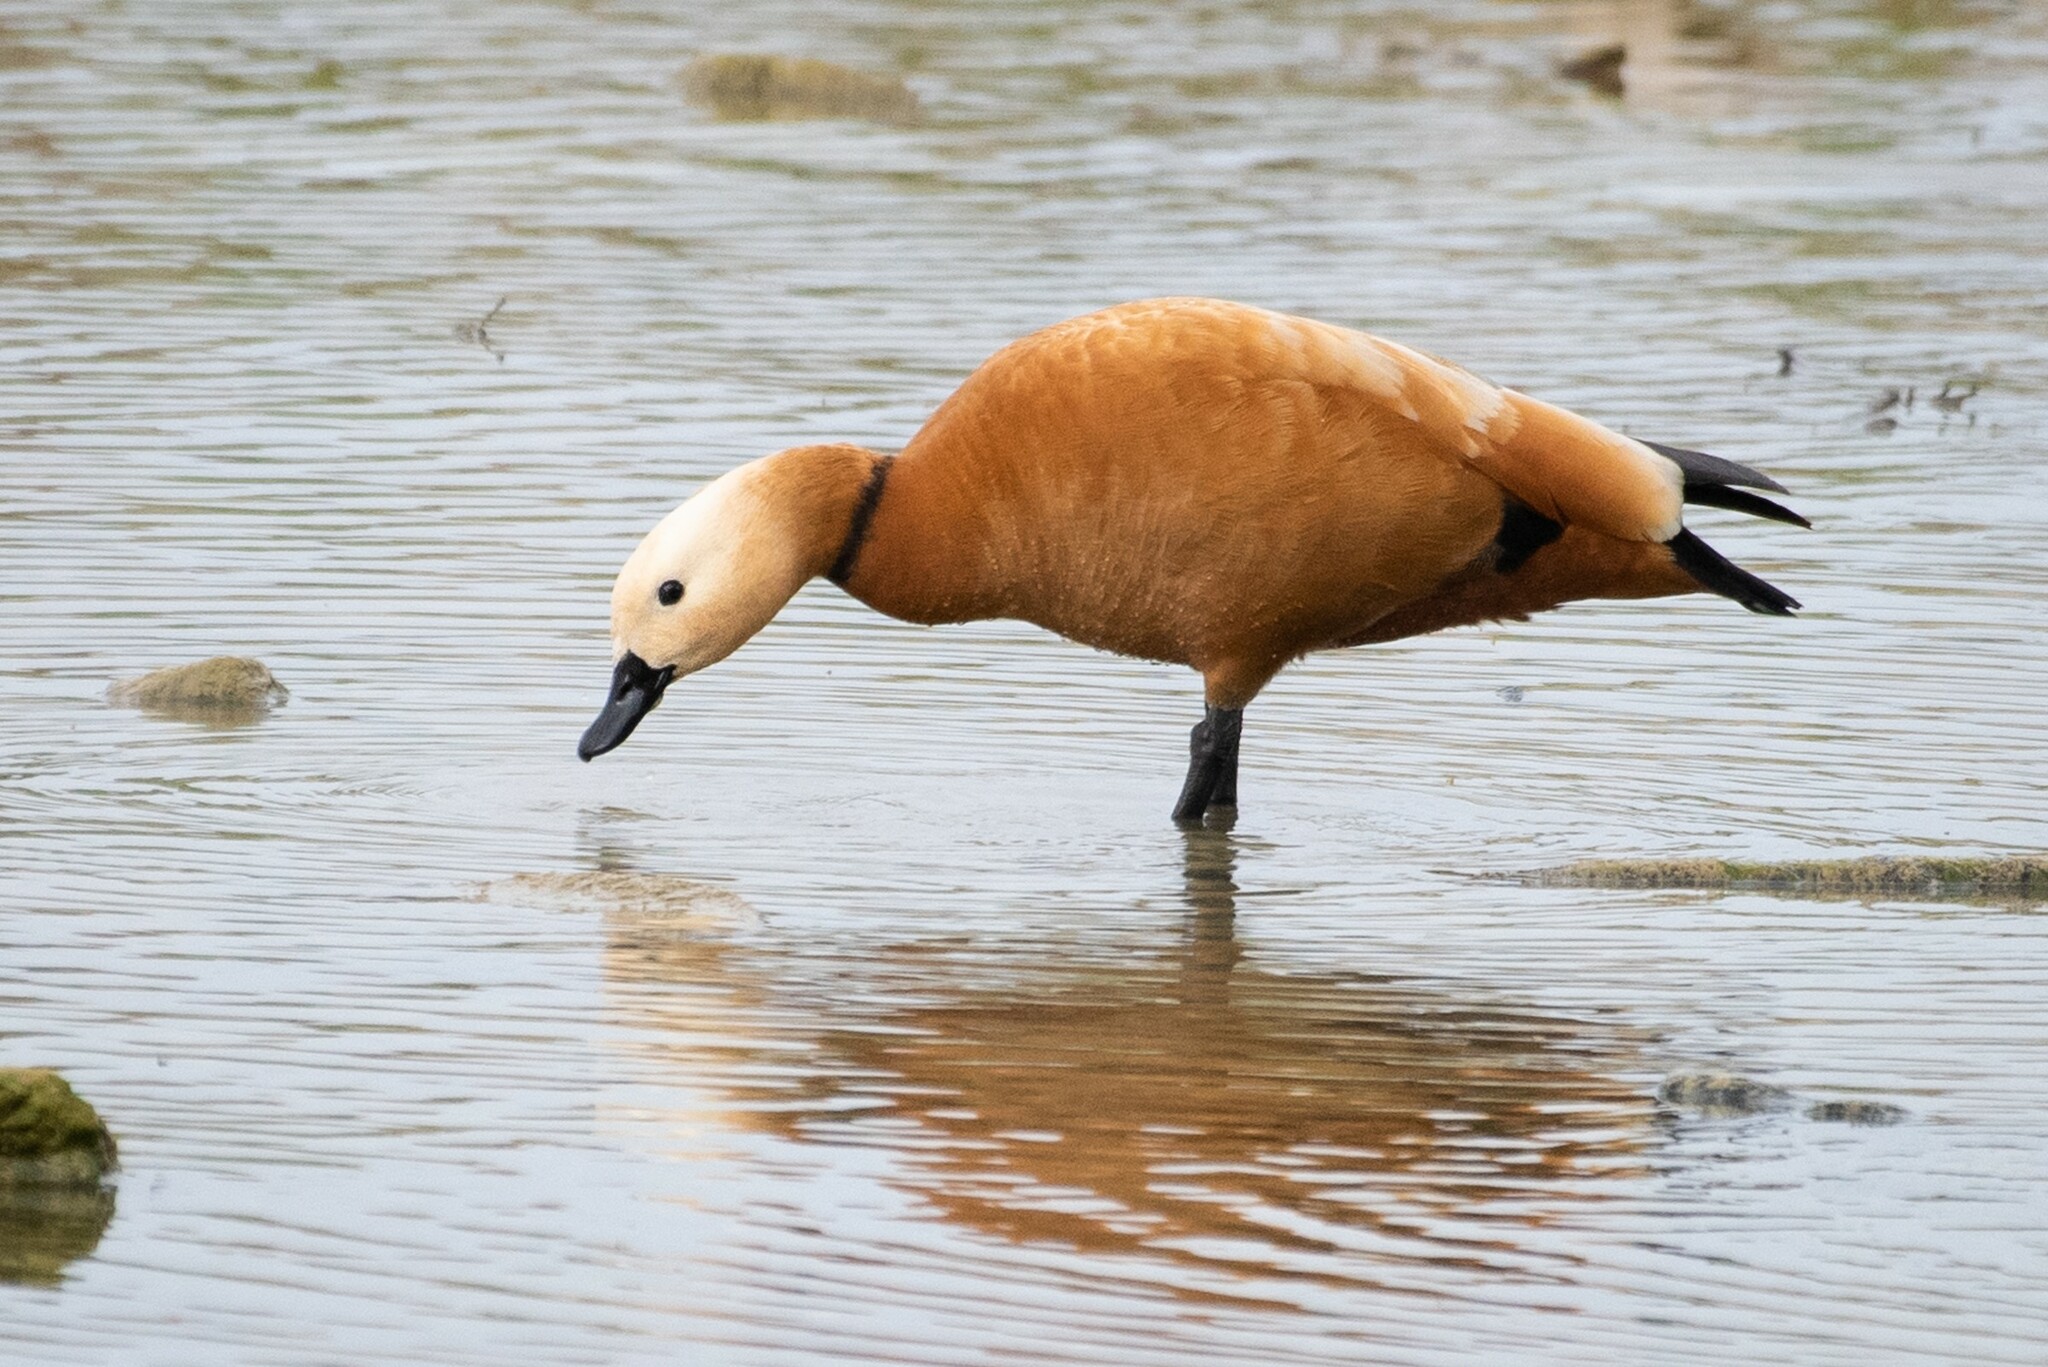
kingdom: Animalia
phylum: Chordata
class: Aves
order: Anseriformes
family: Anatidae
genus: Tadorna
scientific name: Tadorna ferruginea
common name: Ruddy shelduck
